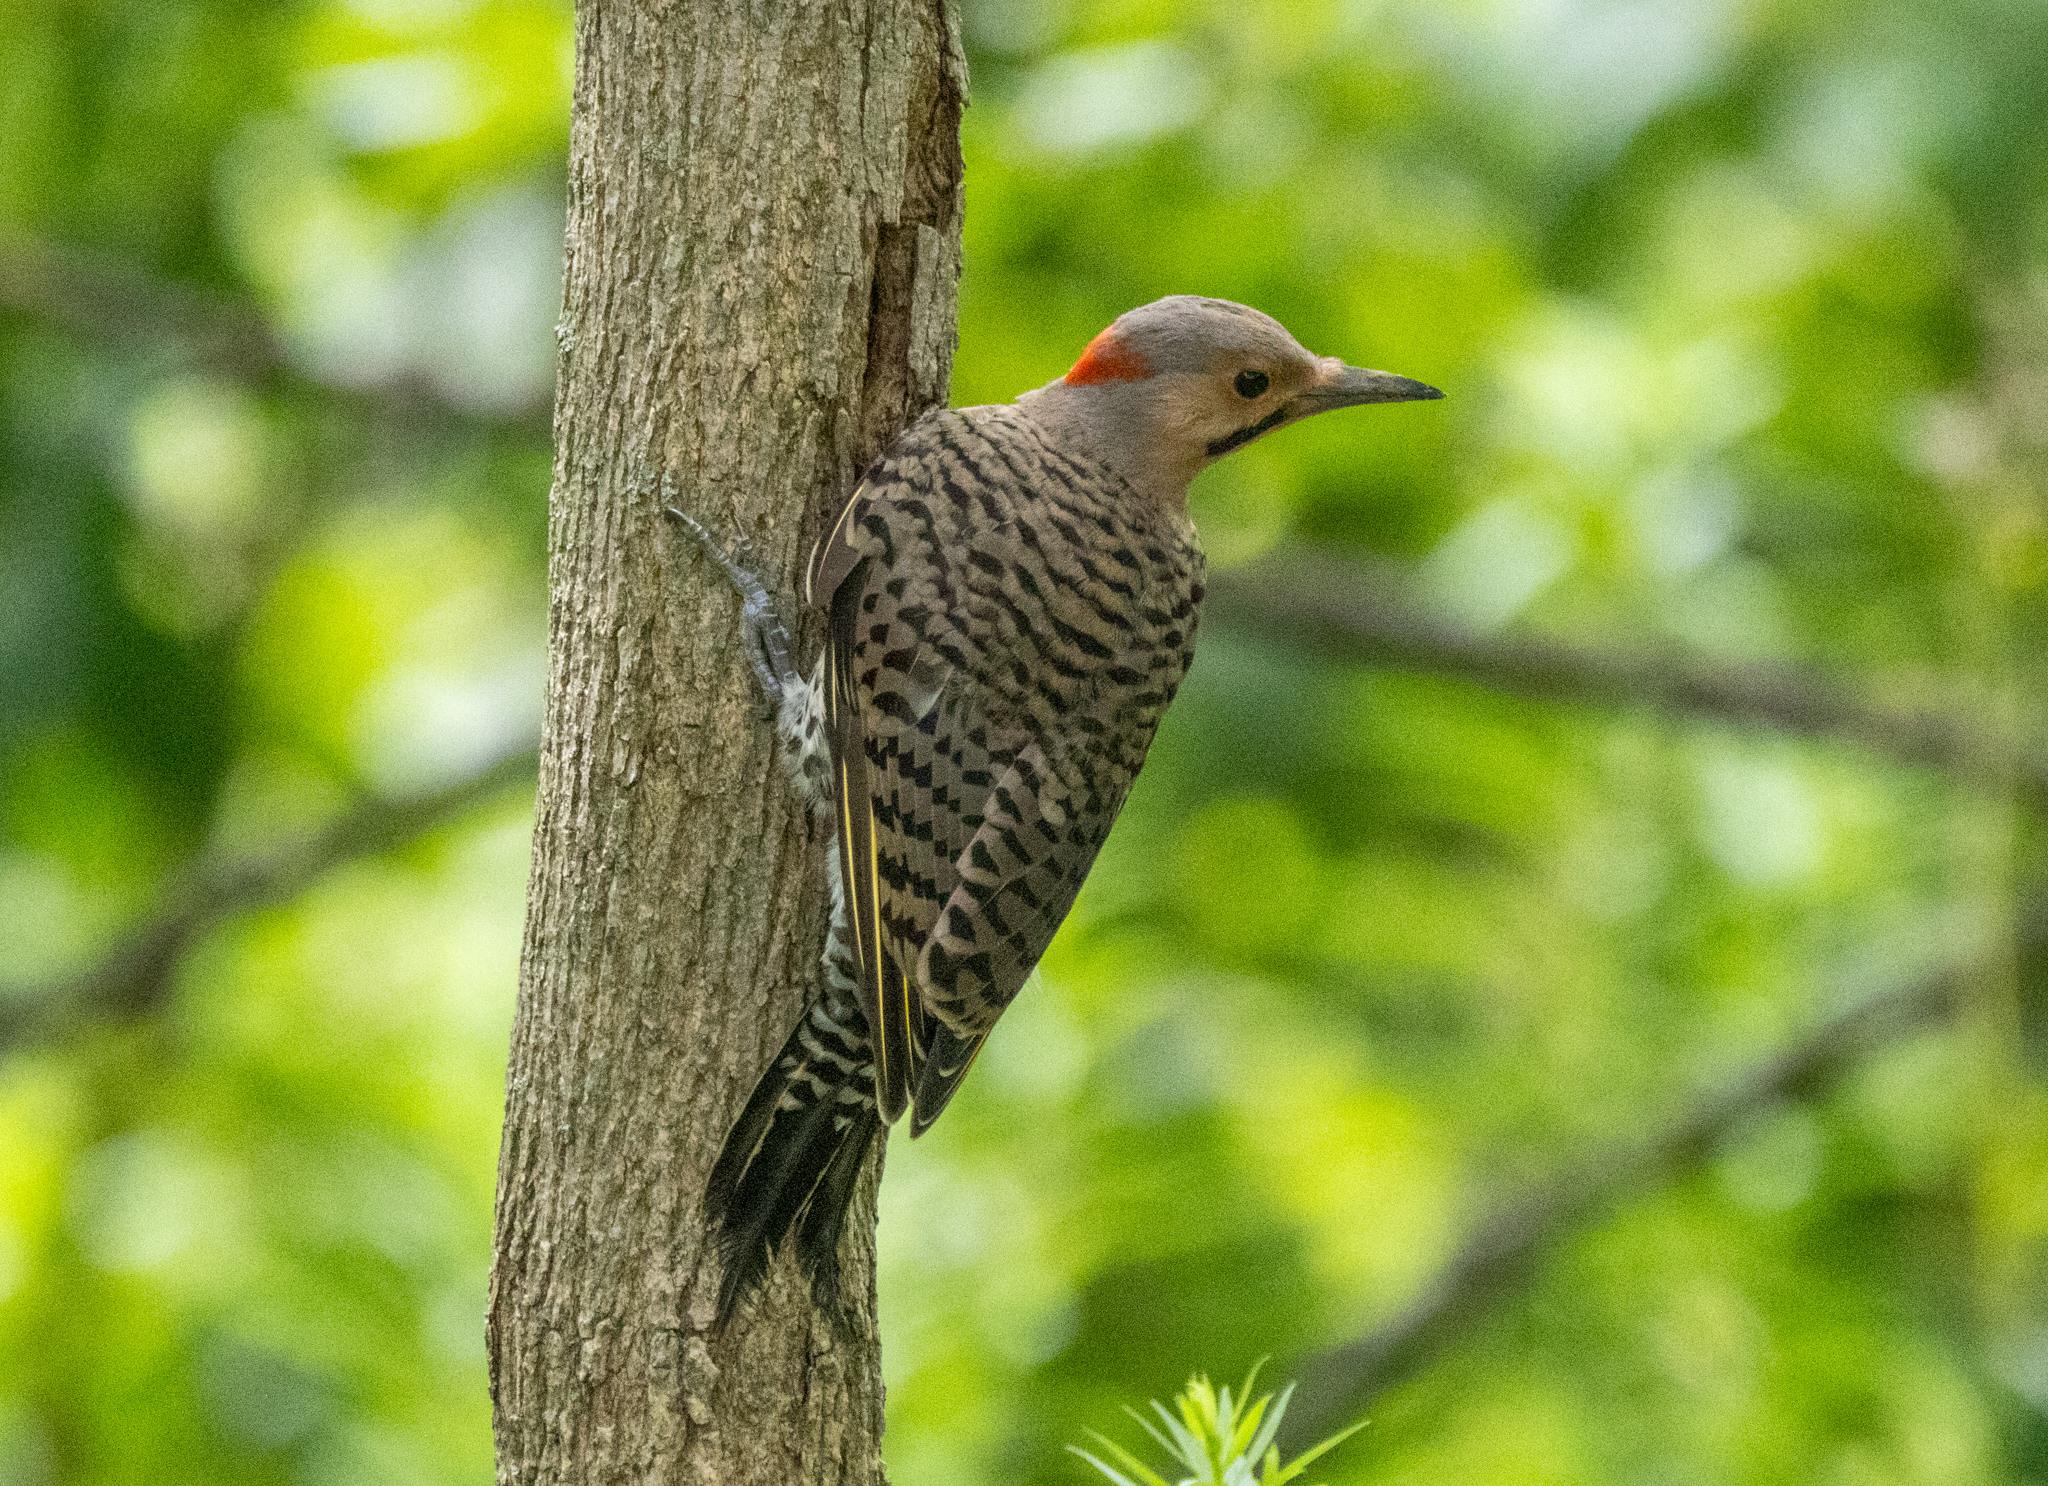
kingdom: Animalia
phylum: Chordata
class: Aves
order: Piciformes
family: Picidae
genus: Colaptes
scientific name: Colaptes auratus
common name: Northern flicker
